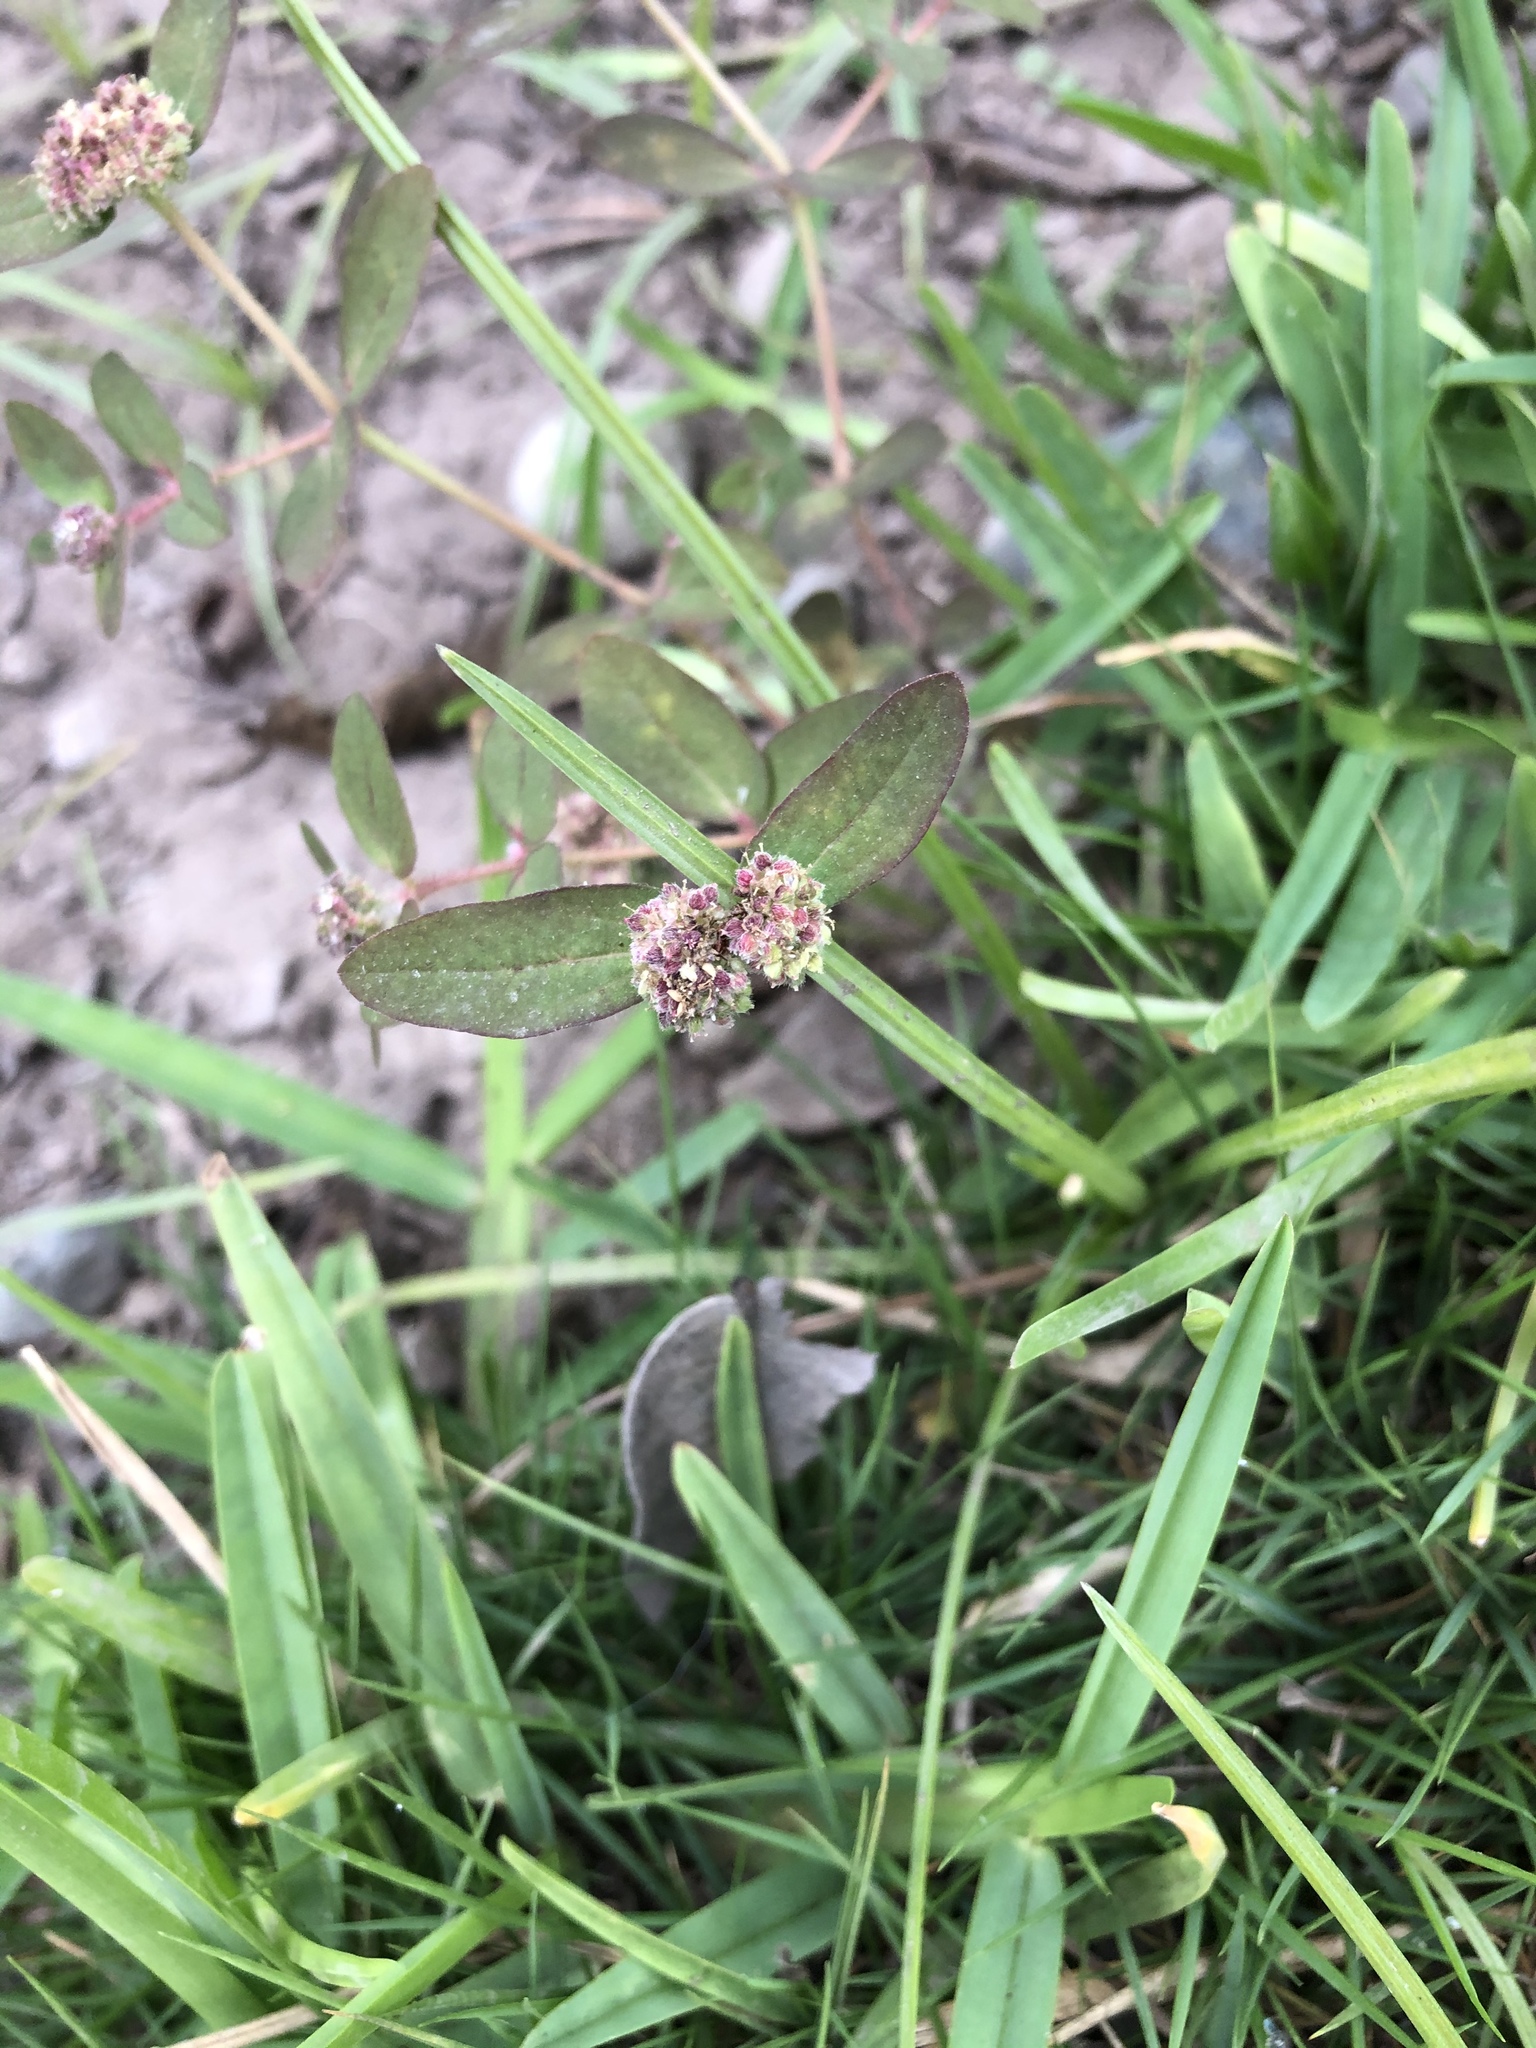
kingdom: Plantae
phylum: Tracheophyta
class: Magnoliopsida
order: Malpighiales
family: Euphorbiaceae
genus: Euphorbia
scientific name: Euphorbia ophthalmica
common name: Florida hammock sandmat
